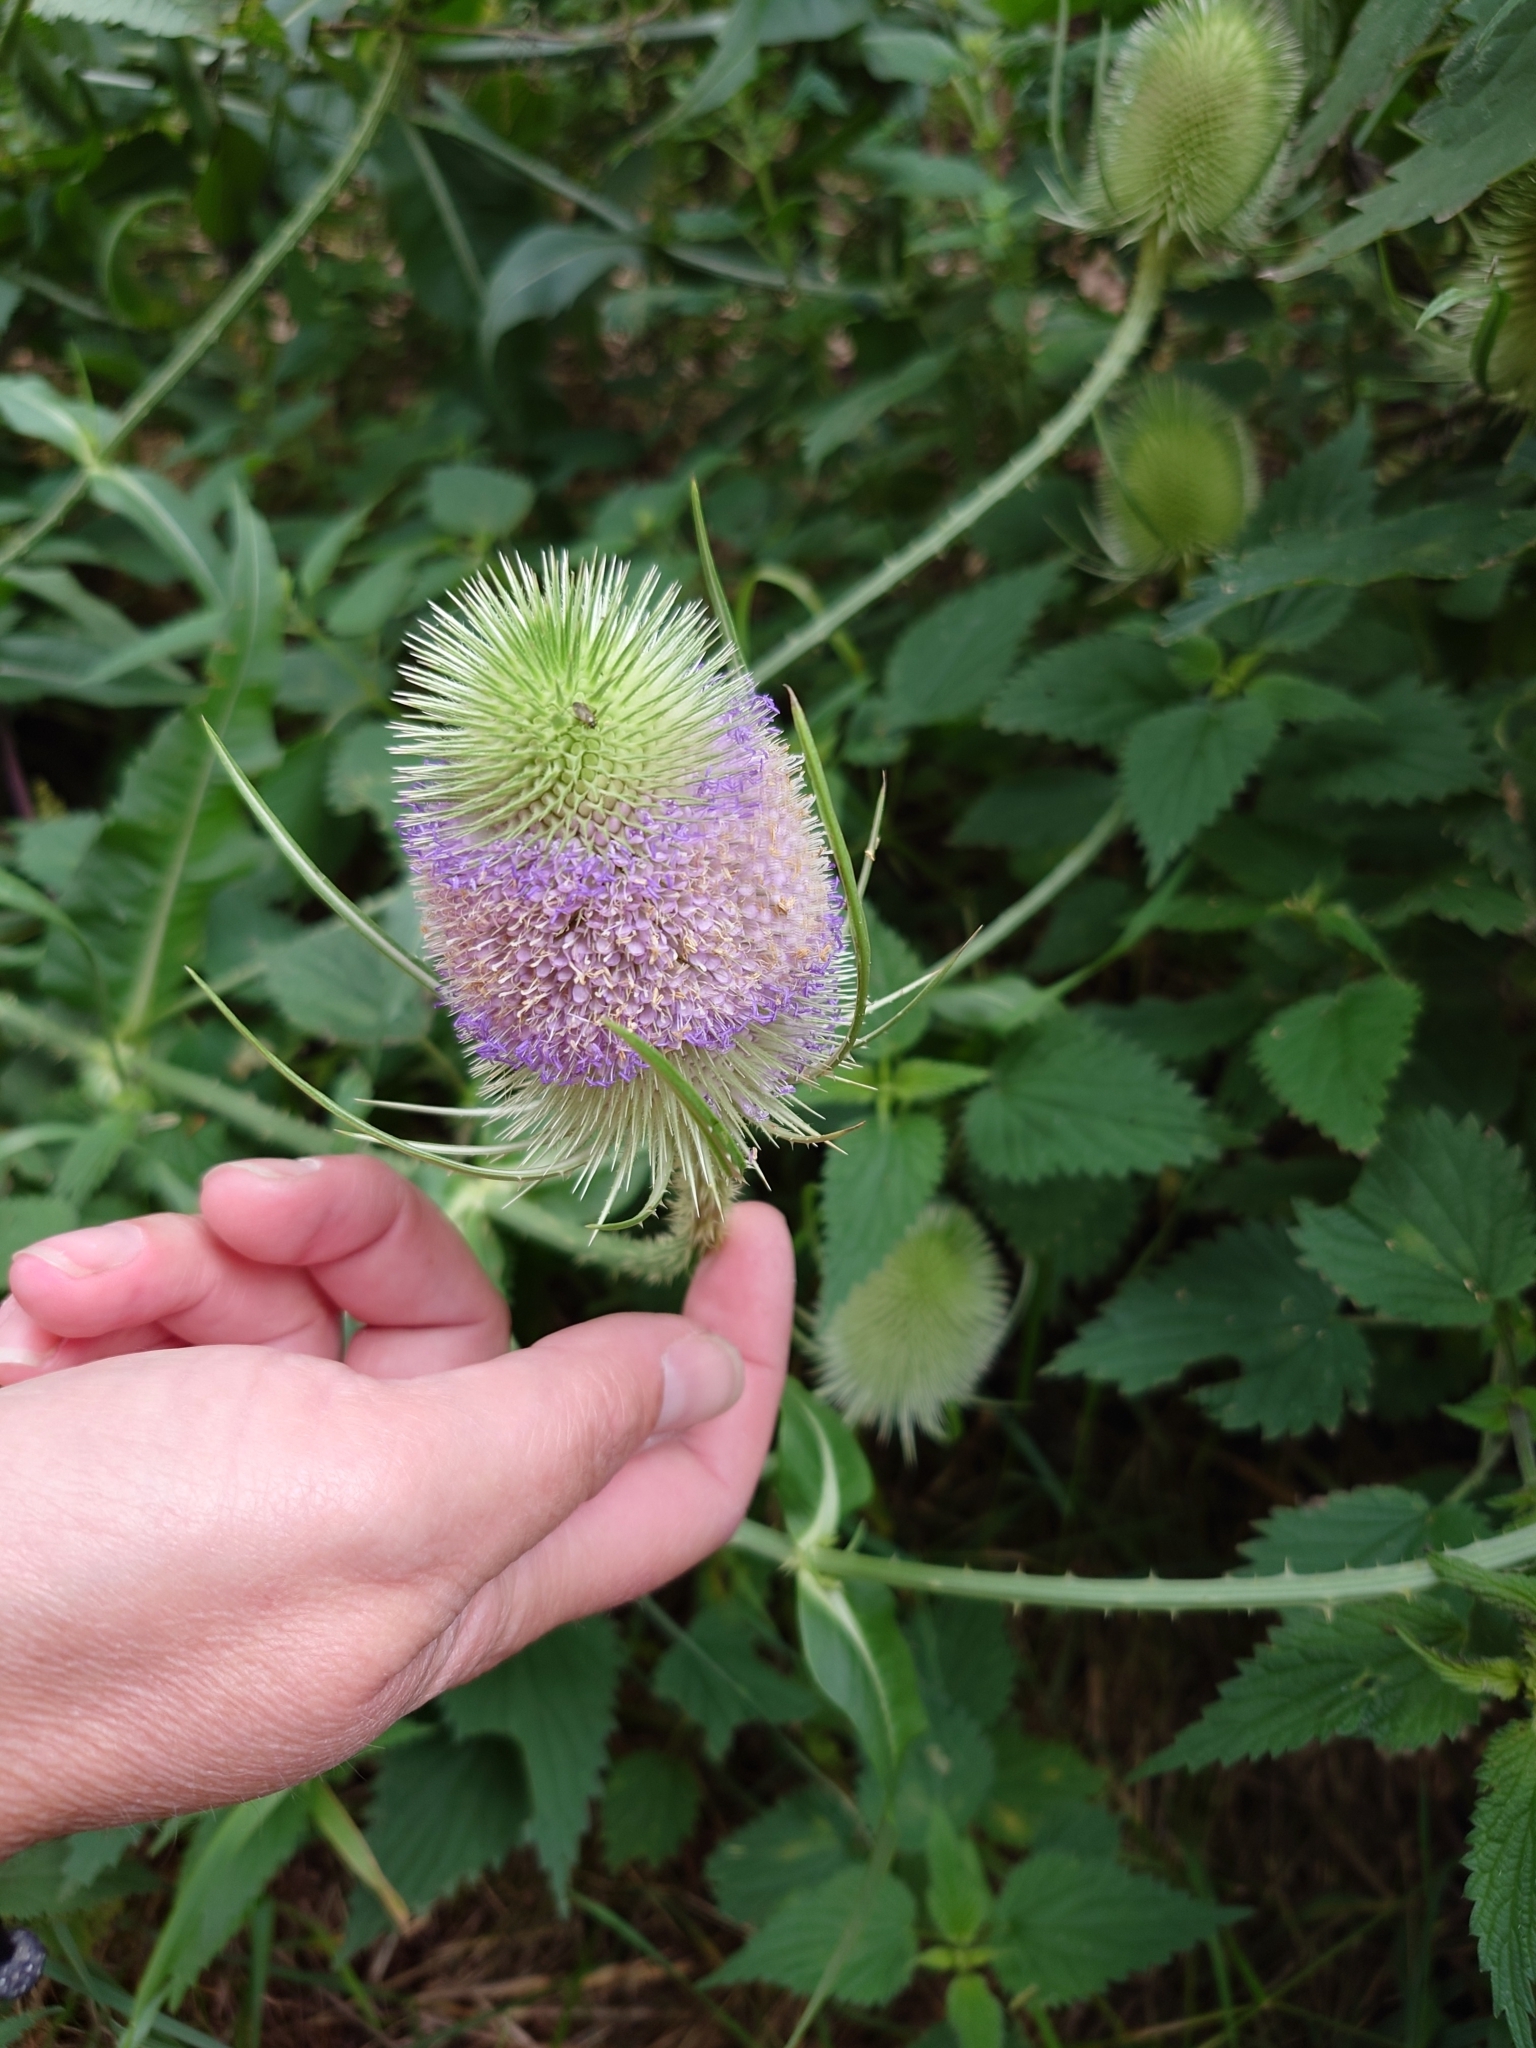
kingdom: Plantae
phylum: Tracheophyta
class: Magnoliopsida
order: Dipsacales
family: Caprifoliaceae
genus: Dipsacus
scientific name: Dipsacus fullonum
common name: Teasel
